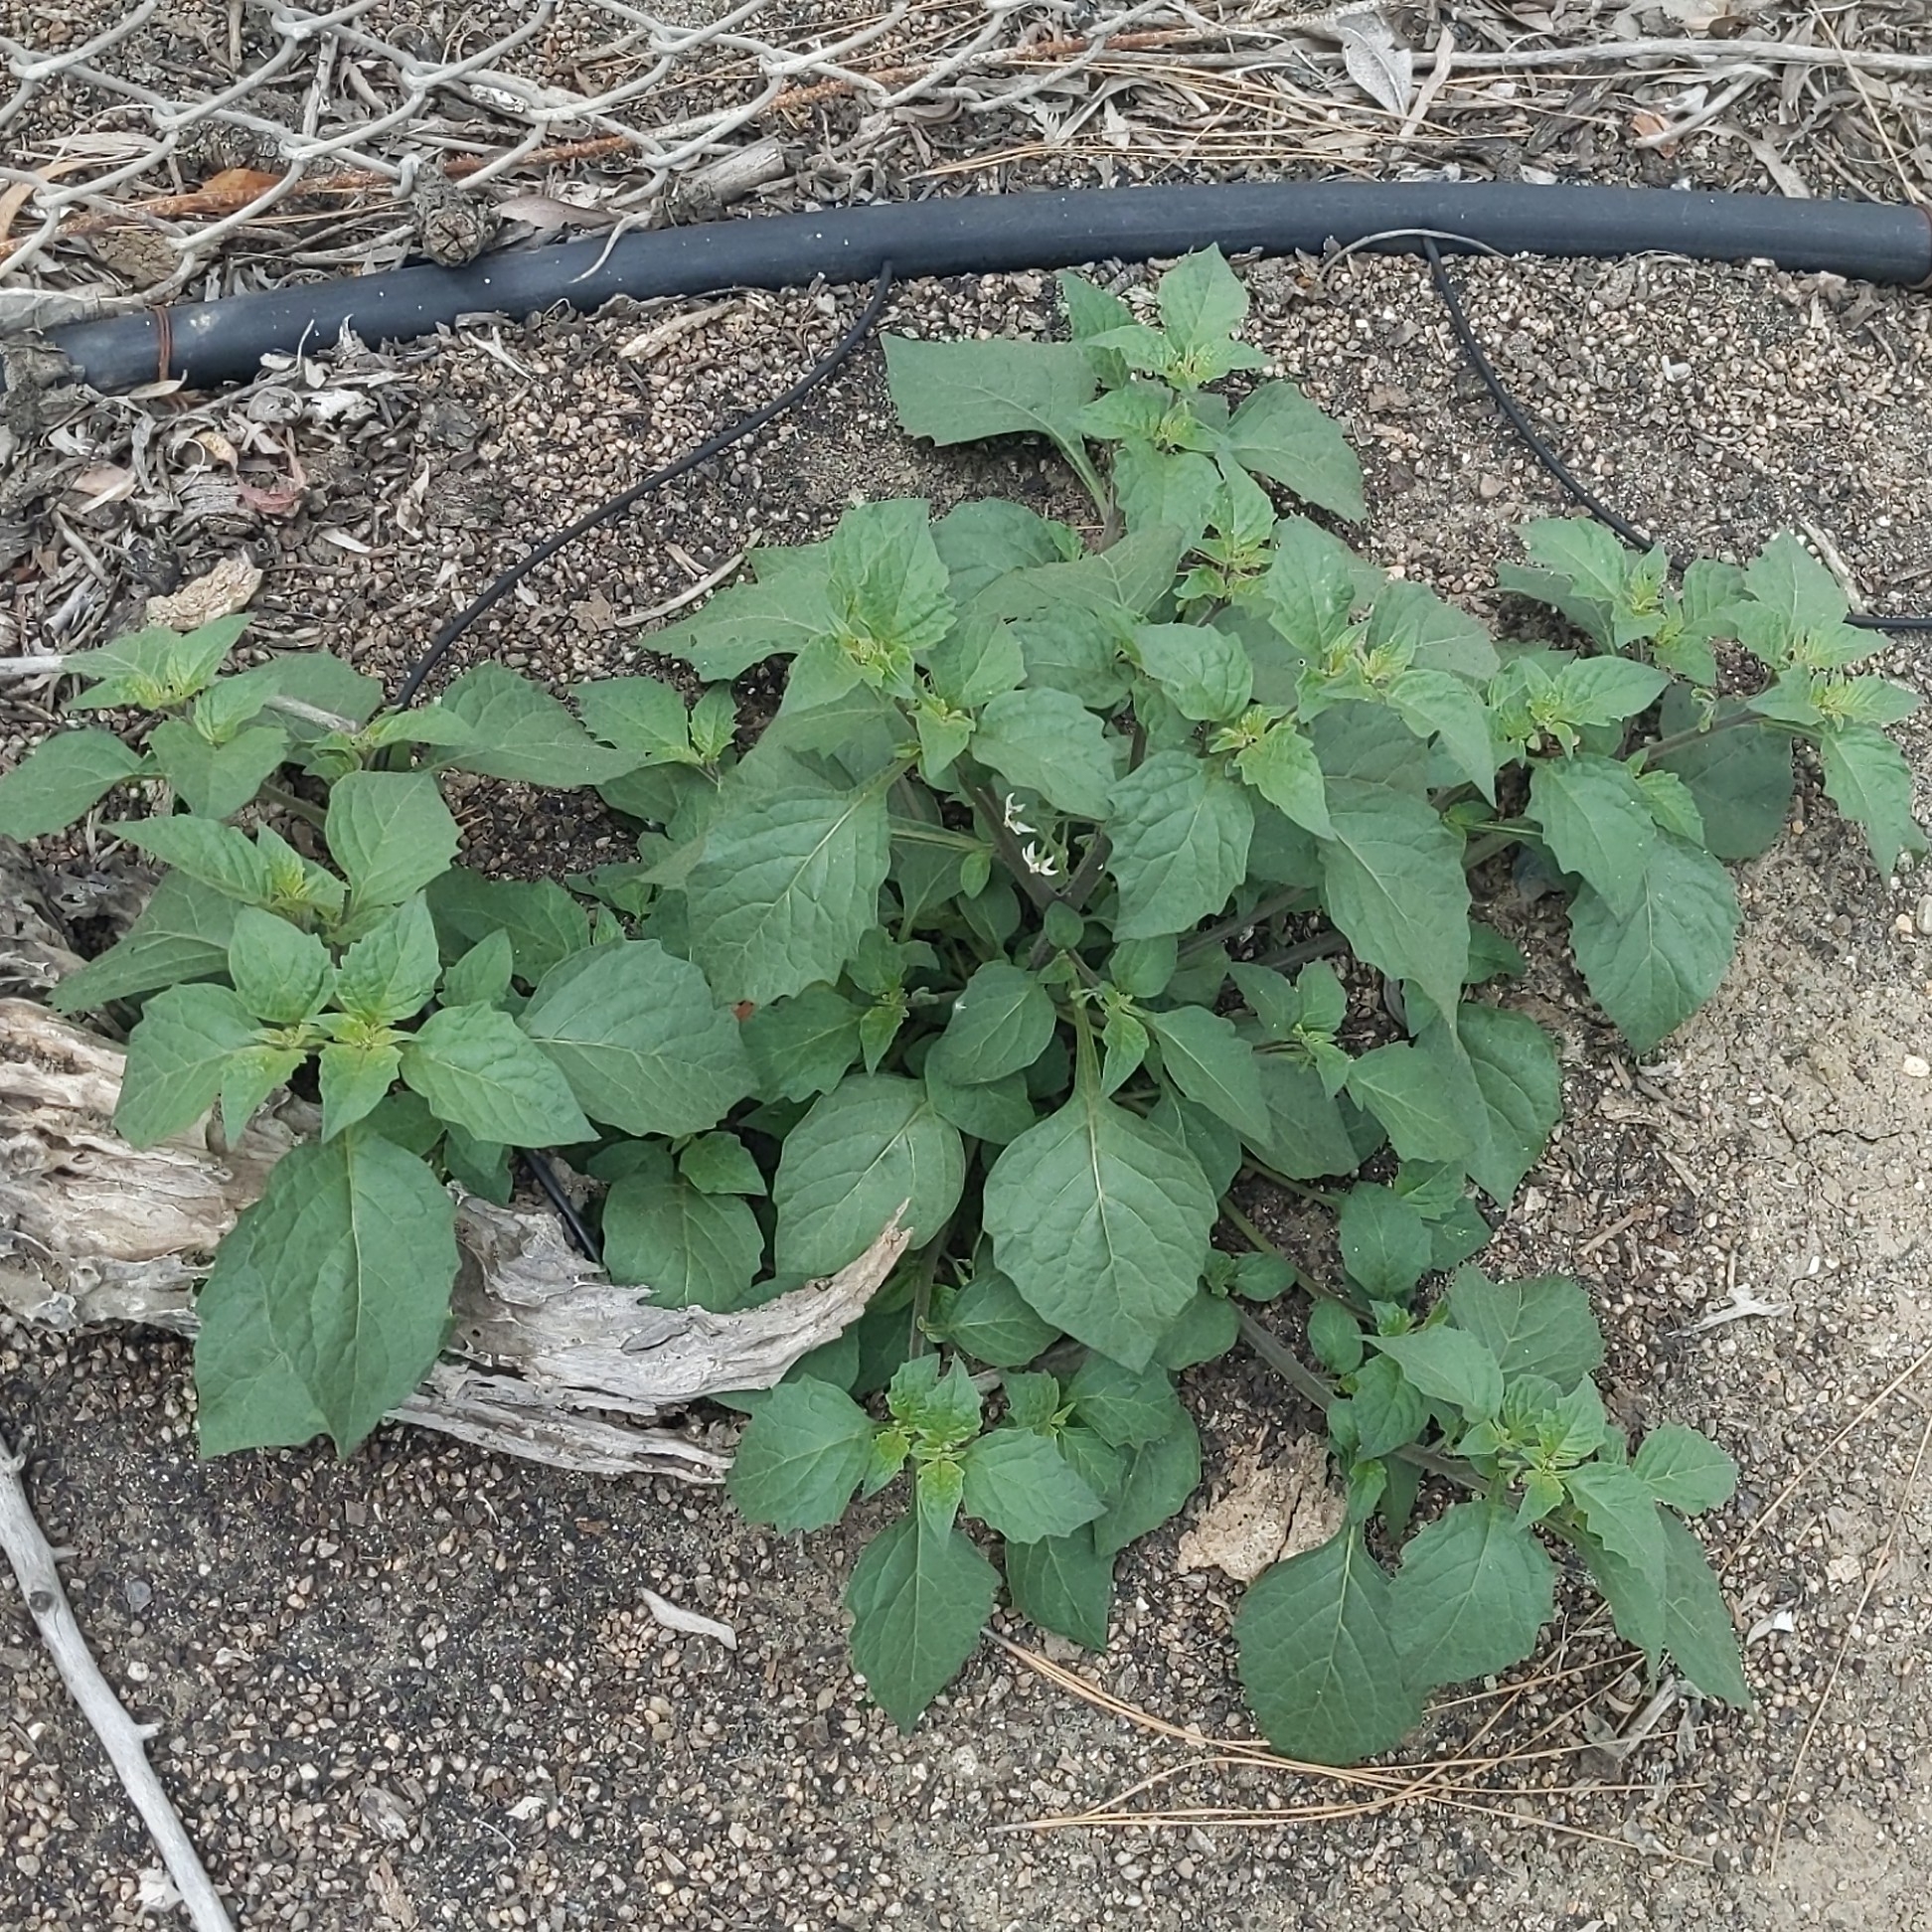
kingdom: Plantae
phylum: Tracheophyta
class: Magnoliopsida
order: Solanales
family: Solanaceae
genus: Solanum
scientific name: Solanum nigrum
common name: Black nightshade
